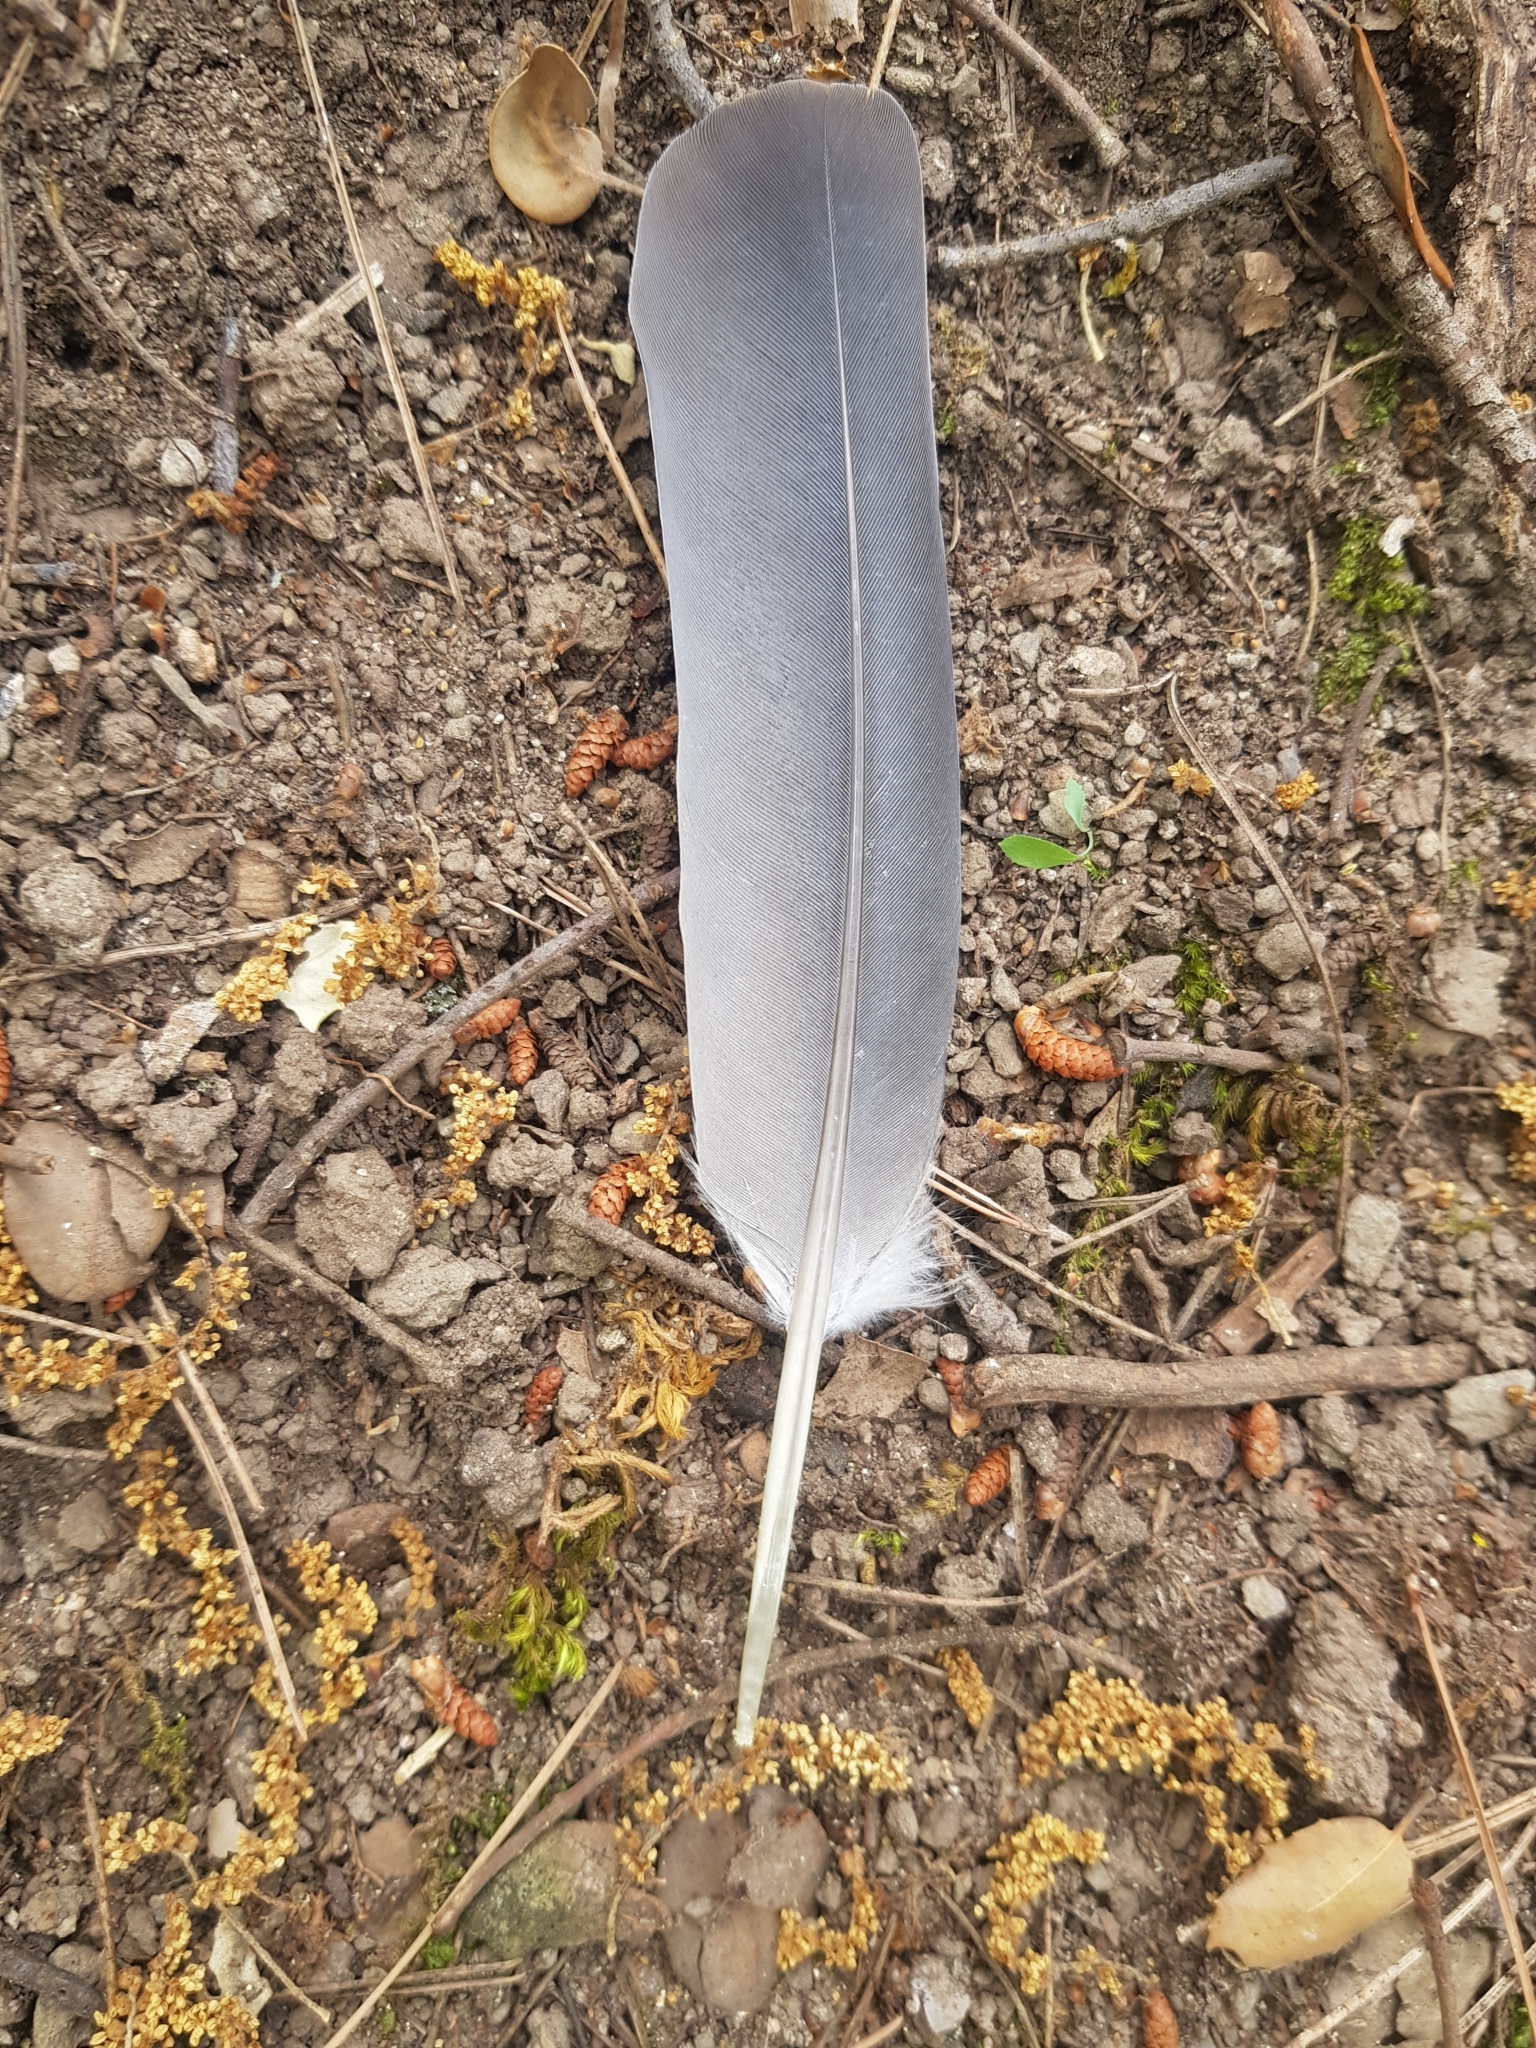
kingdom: Animalia
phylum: Chordata
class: Aves
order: Columbiformes
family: Columbidae
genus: Columba
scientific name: Columba palumbus
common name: Common wood pigeon
